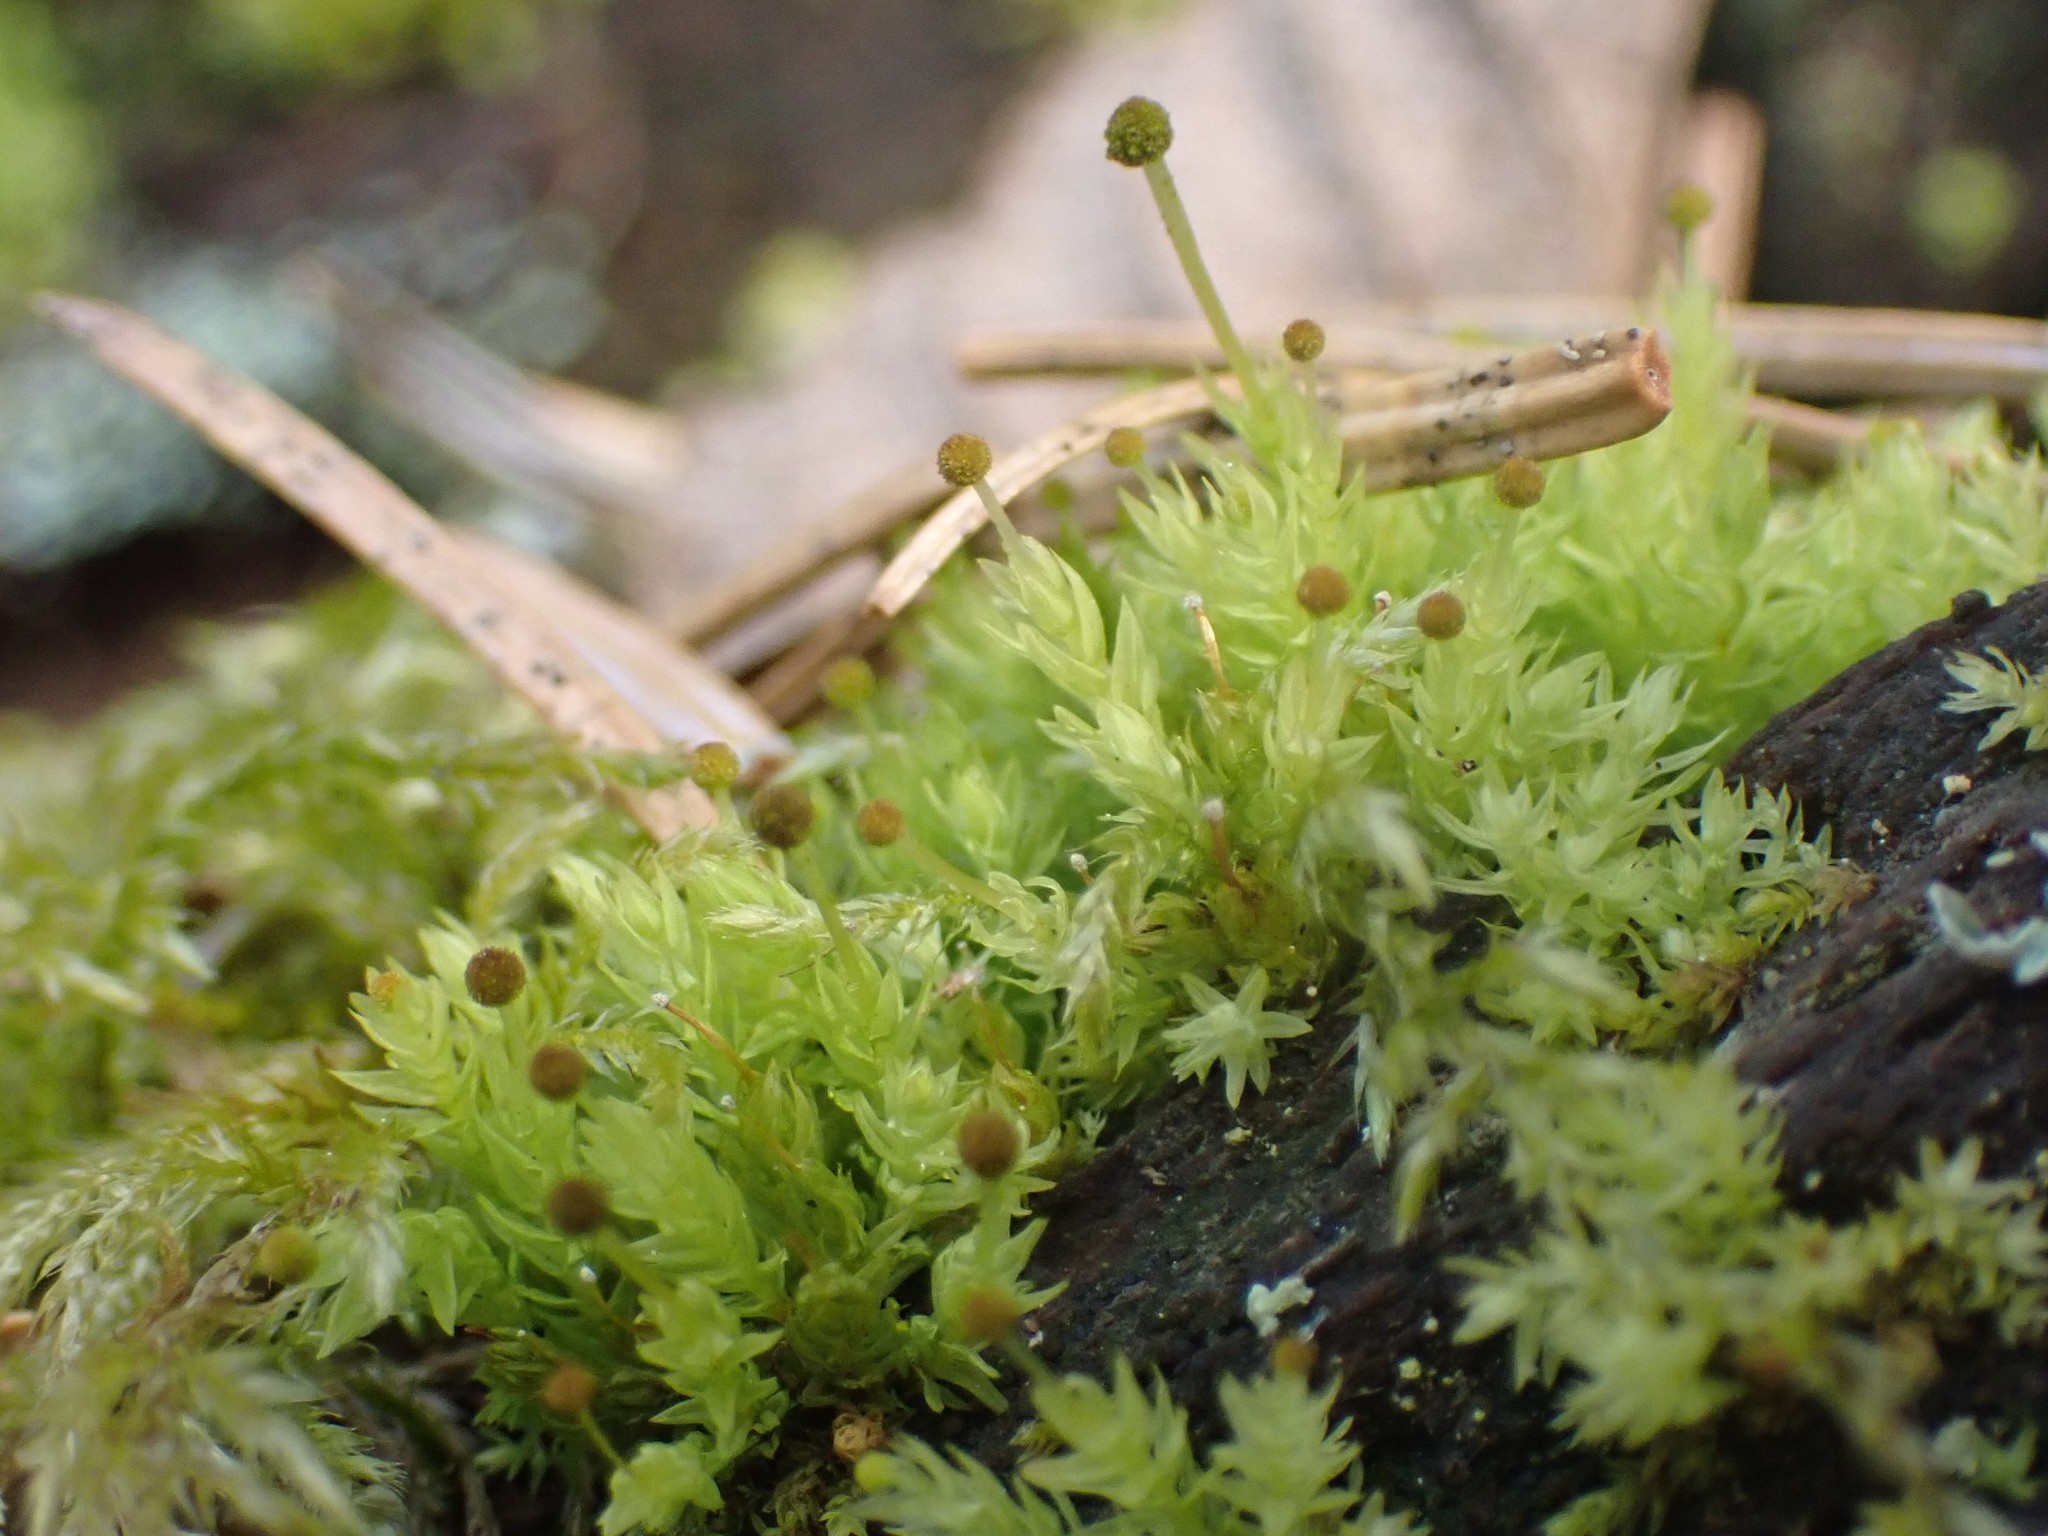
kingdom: Plantae
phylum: Bryophyta
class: Bryopsida
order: Aulacomniales
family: Aulacomniaceae
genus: Aulacomnium
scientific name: Aulacomnium androgynum
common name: Little groove moss
